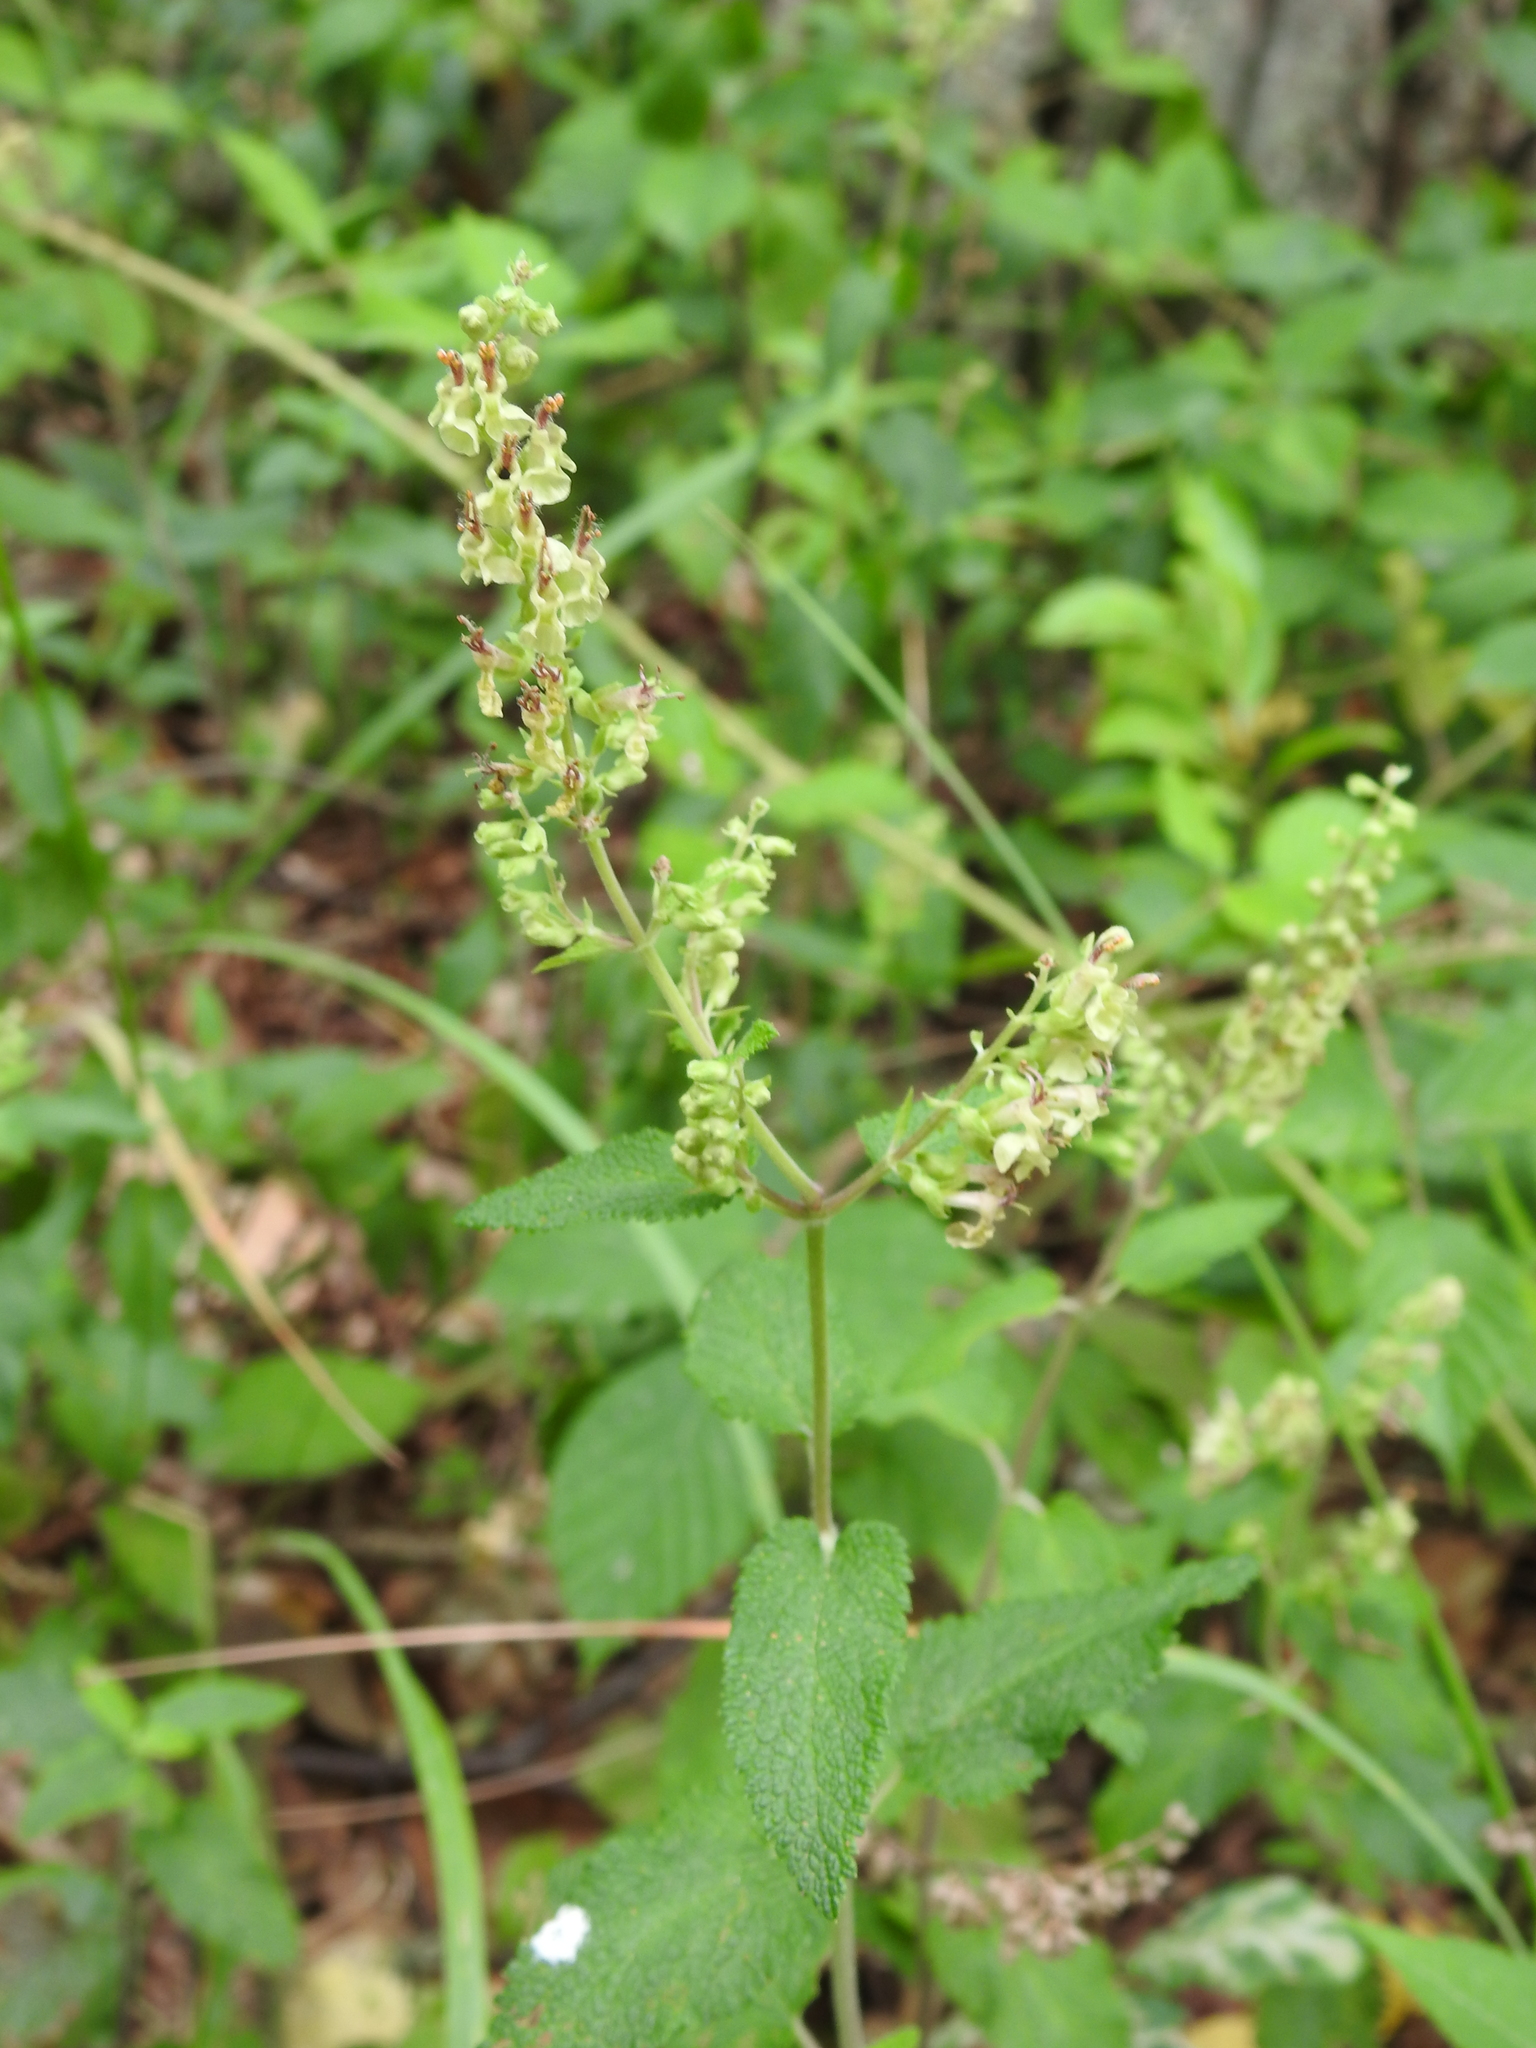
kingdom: Plantae
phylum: Tracheophyta
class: Magnoliopsida
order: Lamiales
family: Lamiaceae
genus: Teucrium
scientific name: Teucrium scorodonia
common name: Woodland germander
